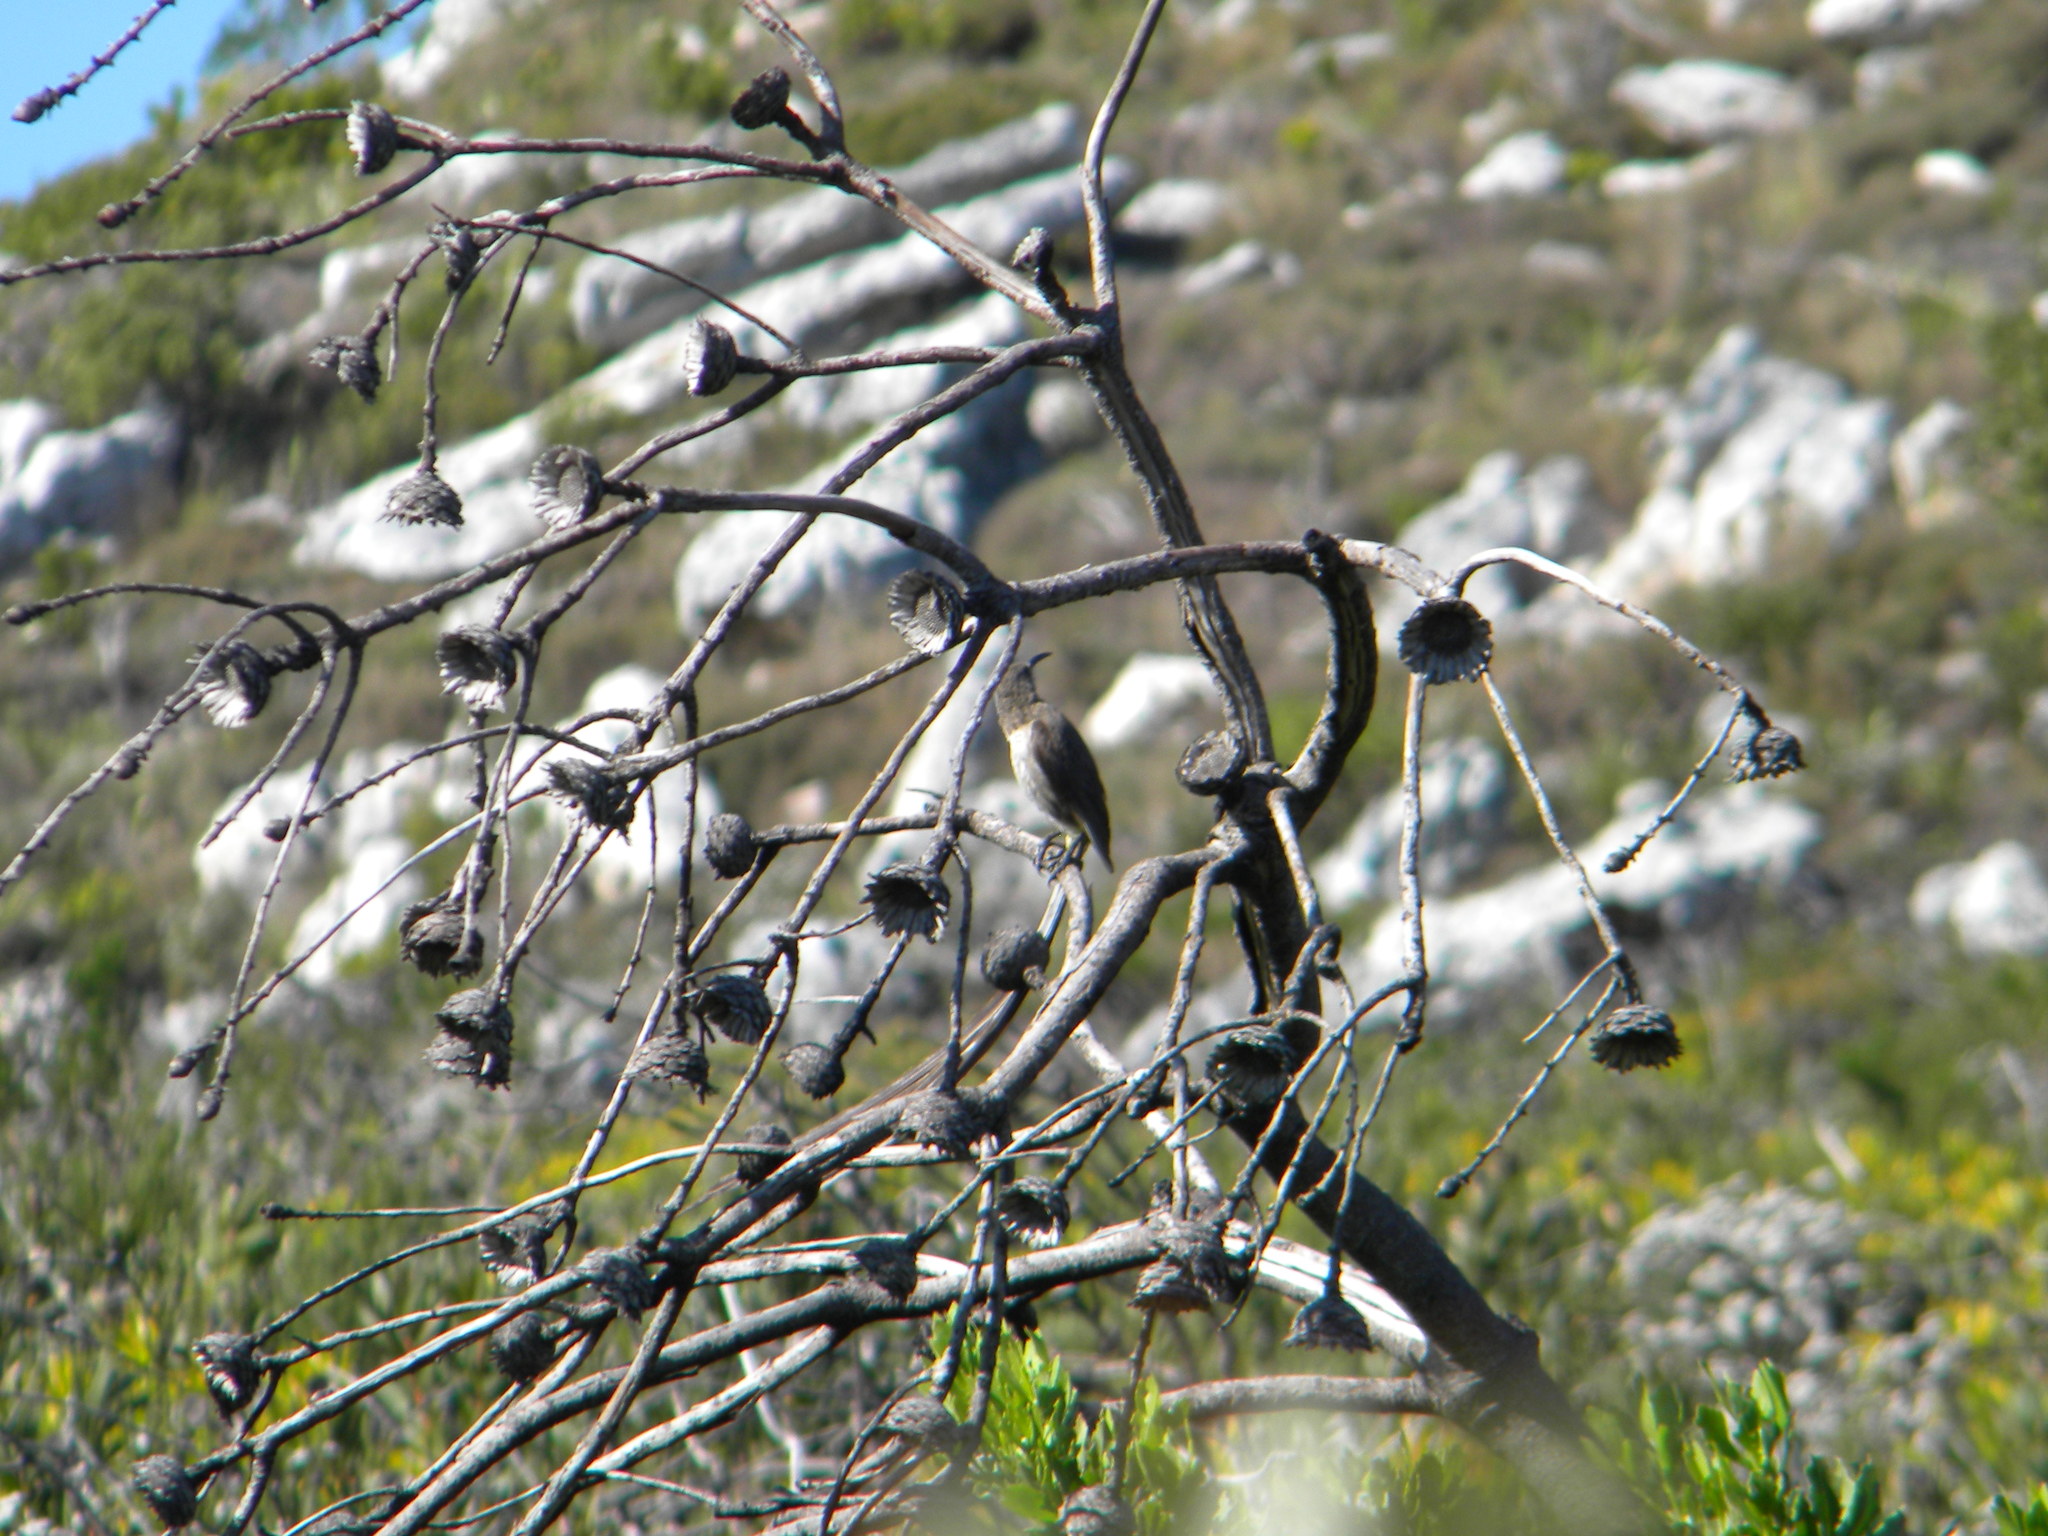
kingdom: Animalia
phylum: Chordata
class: Aves
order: Passeriformes
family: Promeropidae
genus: Promerops
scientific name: Promerops cafer
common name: Cape sugarbird
